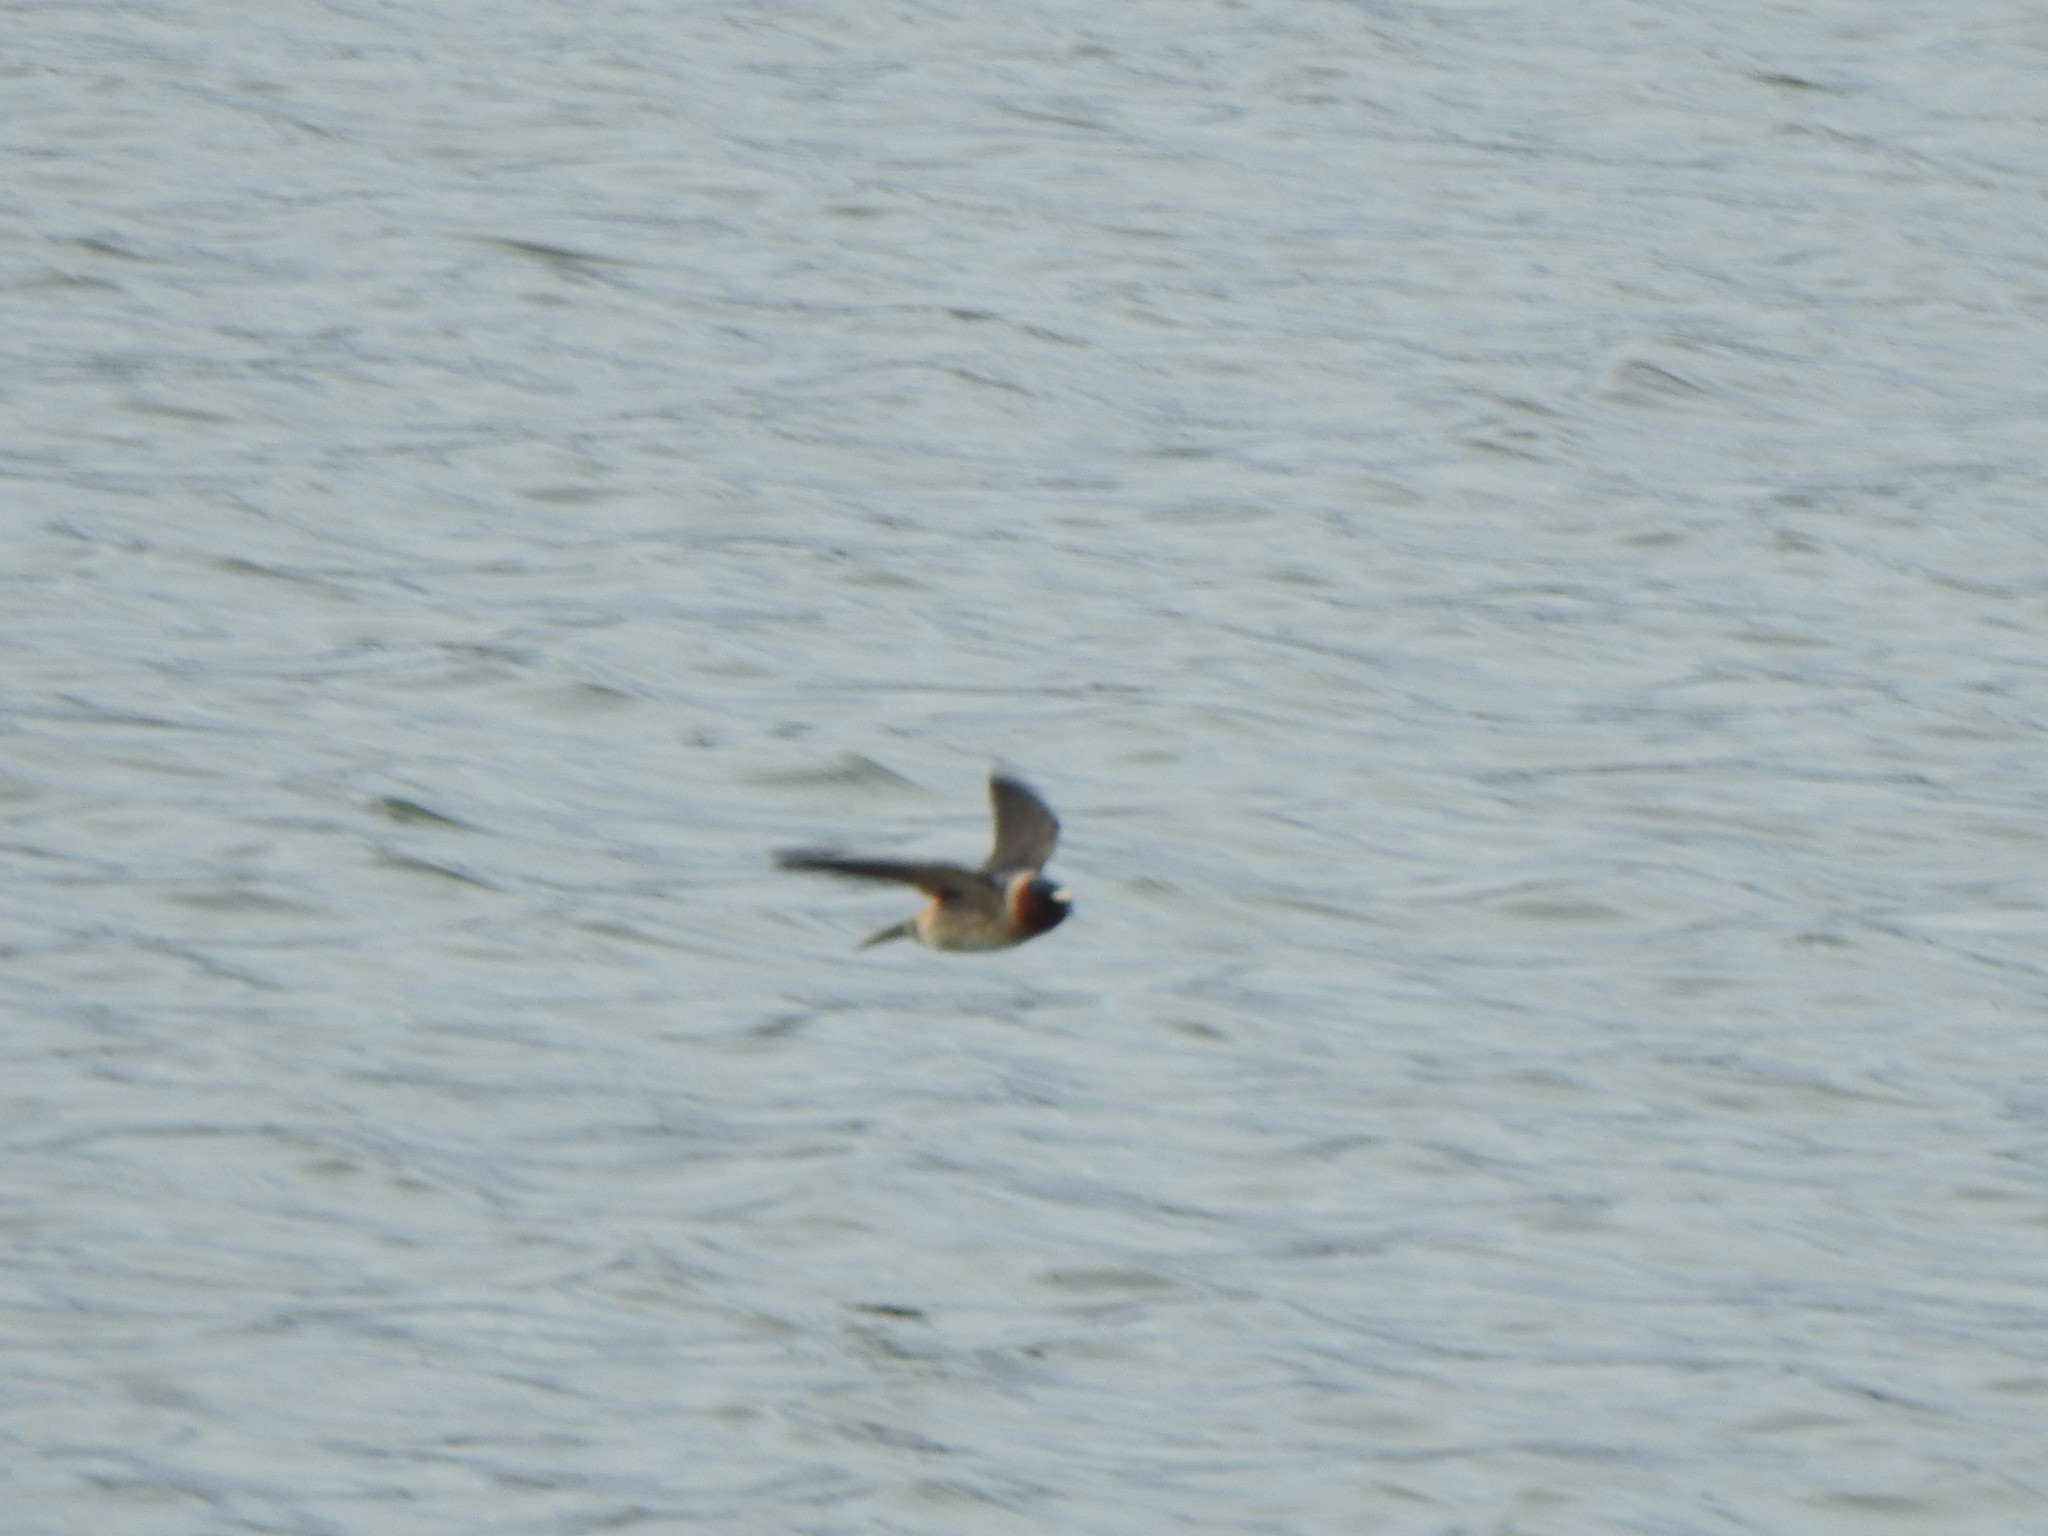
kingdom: Animalia
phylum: Chordata
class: Aves
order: Passeriformes
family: Hirundinidae
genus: Petrochelidon
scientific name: Petrochelidon pyrrhonota
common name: American cliff swallow
